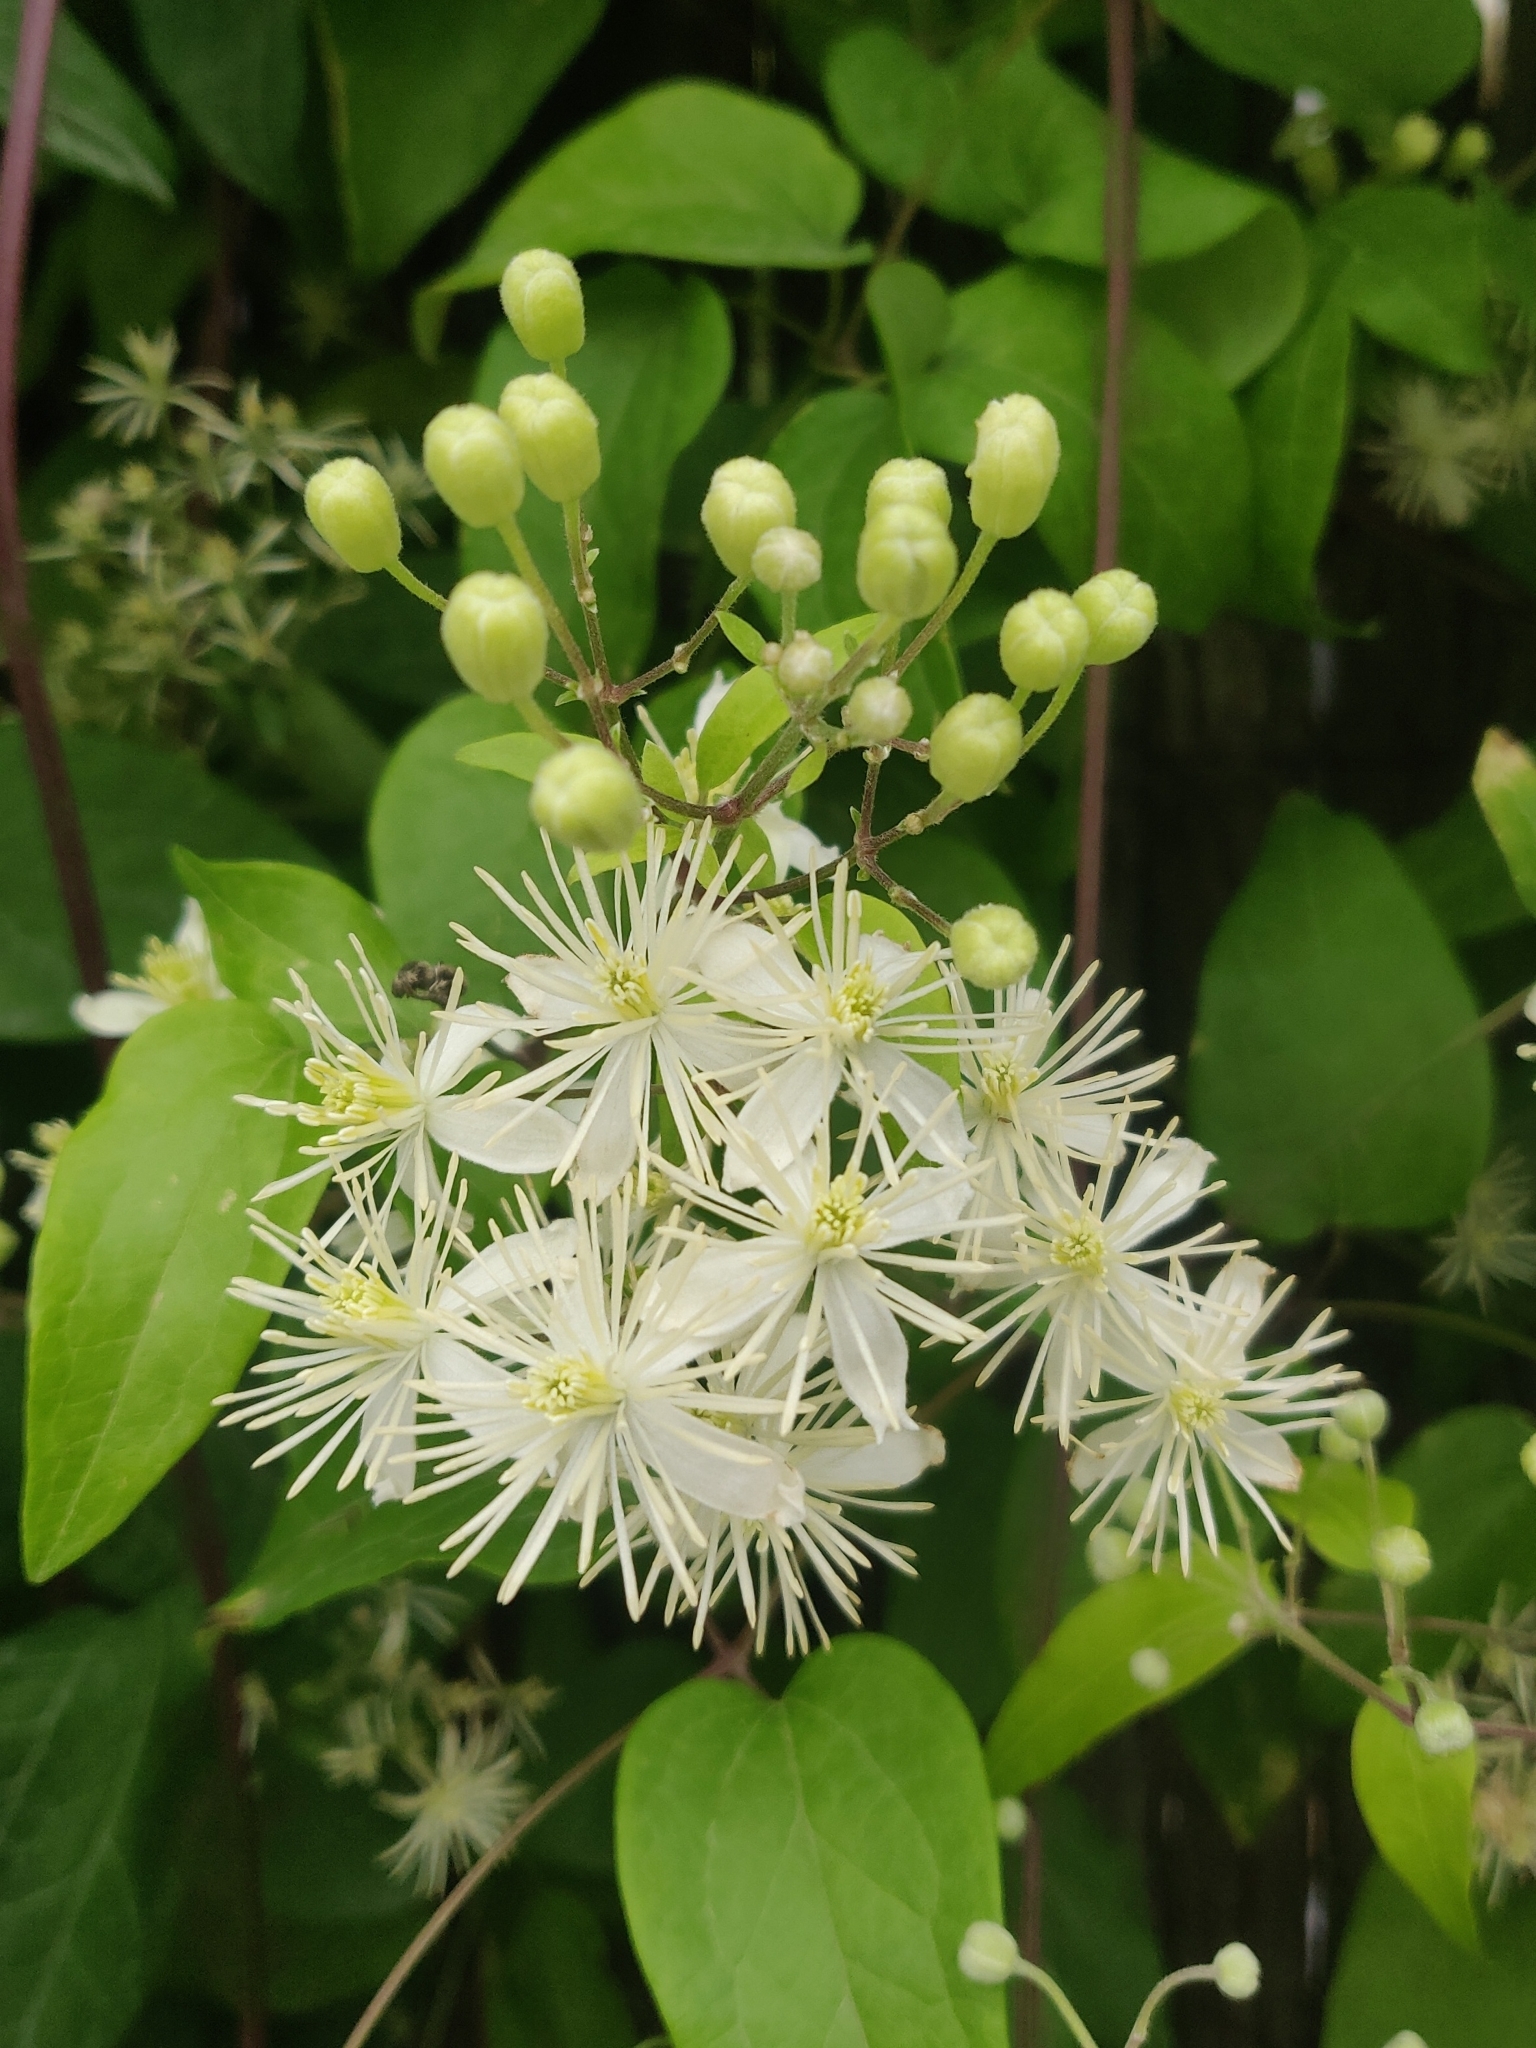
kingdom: Plantae
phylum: Tracheophyta
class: Magnoliopsida
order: Ranunculales
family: Ranunculaceae
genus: Clematis
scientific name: Clematis vitalba
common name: Evergreen clematis
